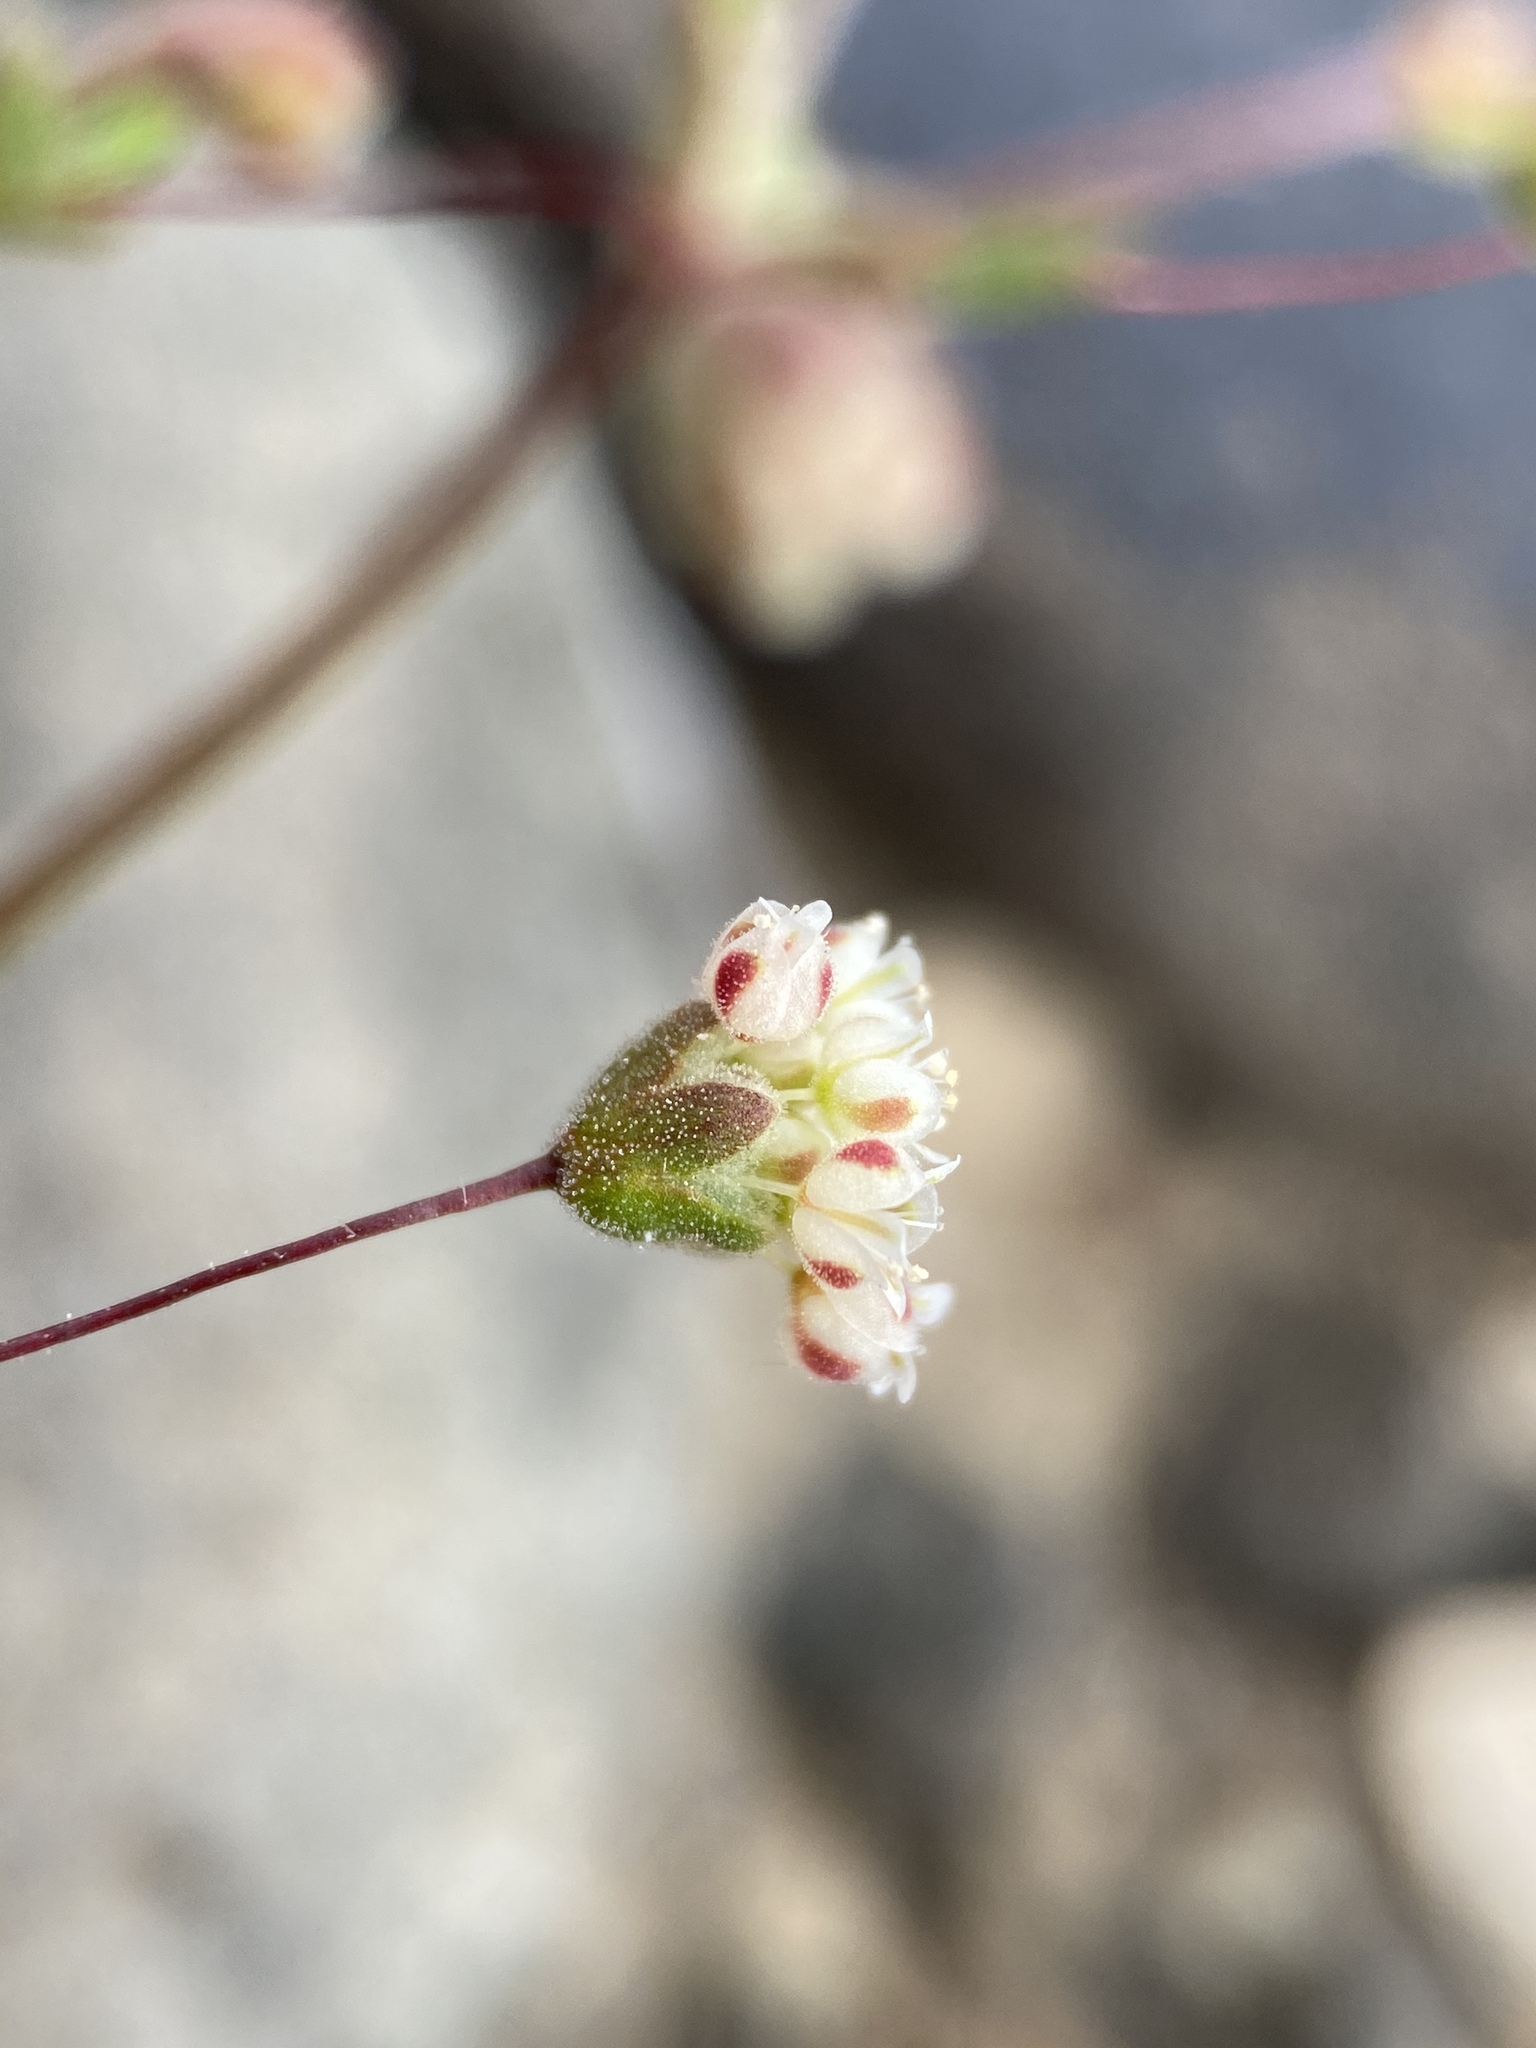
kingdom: Plantae
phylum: Tracheophyta
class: Magnoliopsida
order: Caryophyllales
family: Polygonaceae
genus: Eriogonum
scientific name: Eriogonum maculatum
